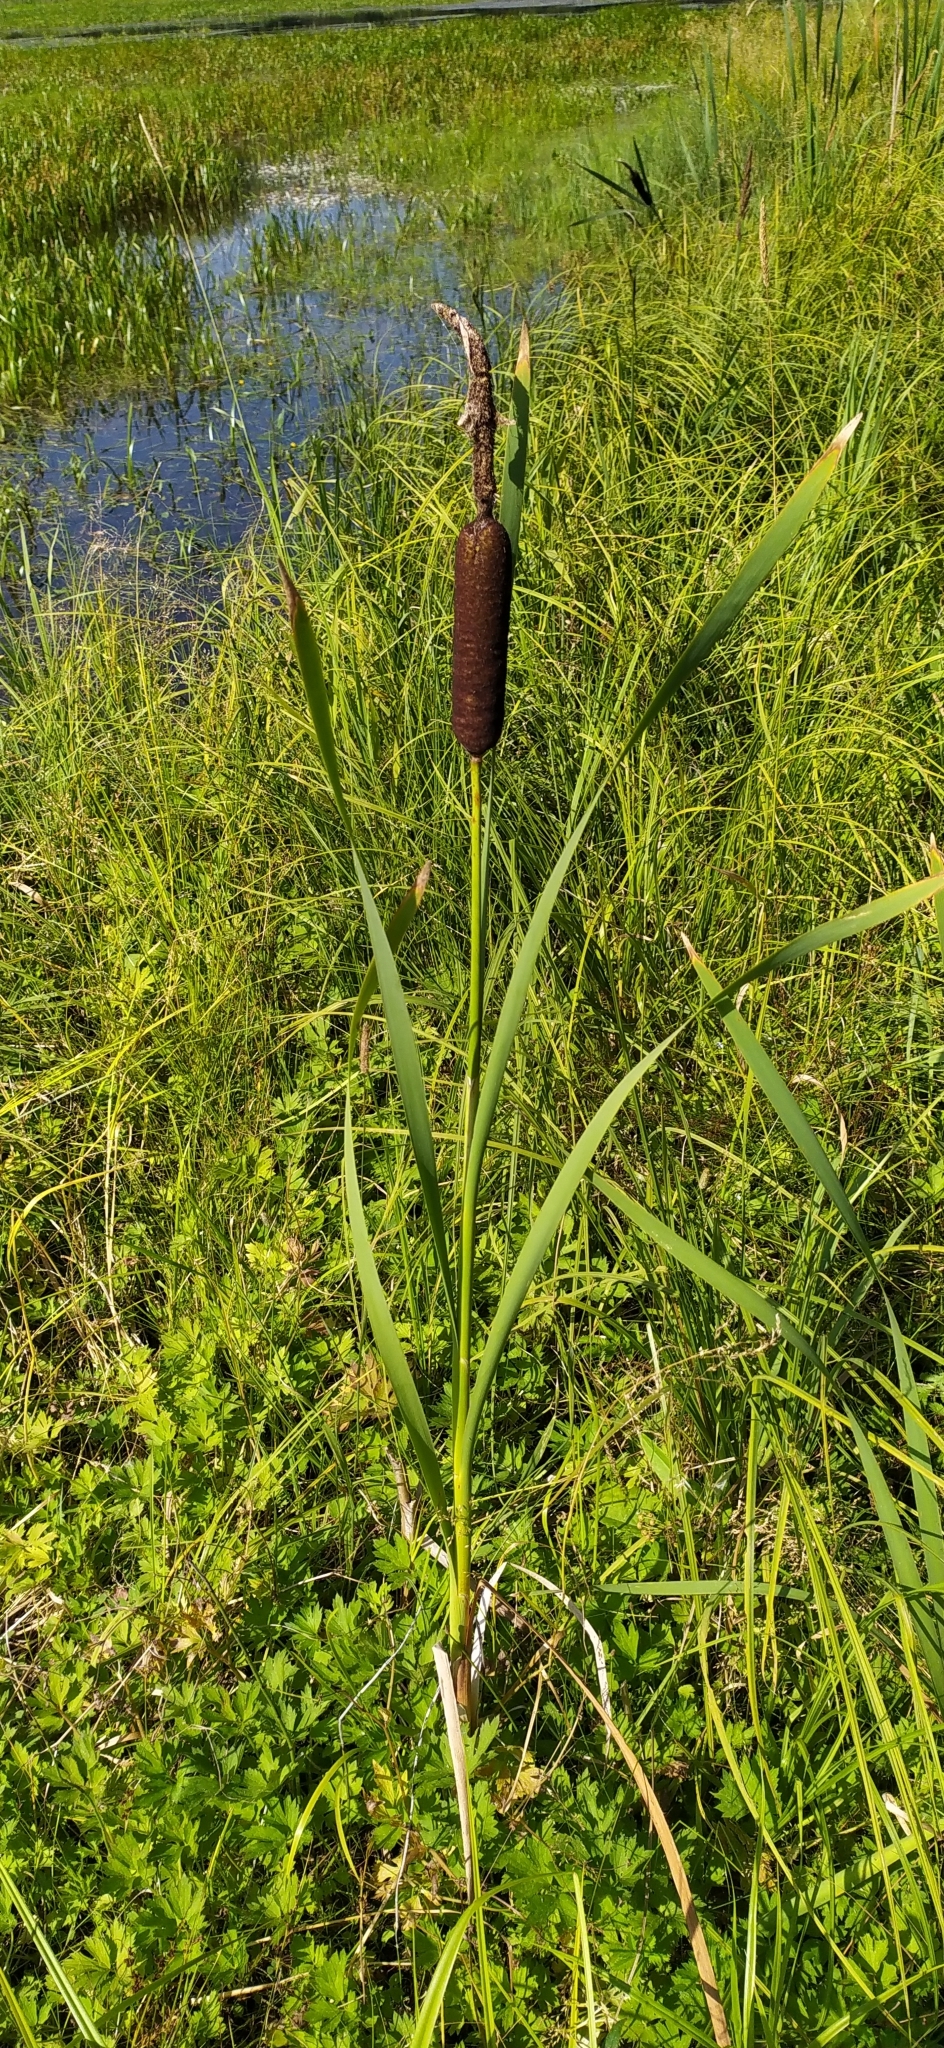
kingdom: Plantae
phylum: Tracheophyta
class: Liliopsida
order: Poales
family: Typhaceae
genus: Typha
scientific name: Typha latifolia
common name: Broadleaf cattail
